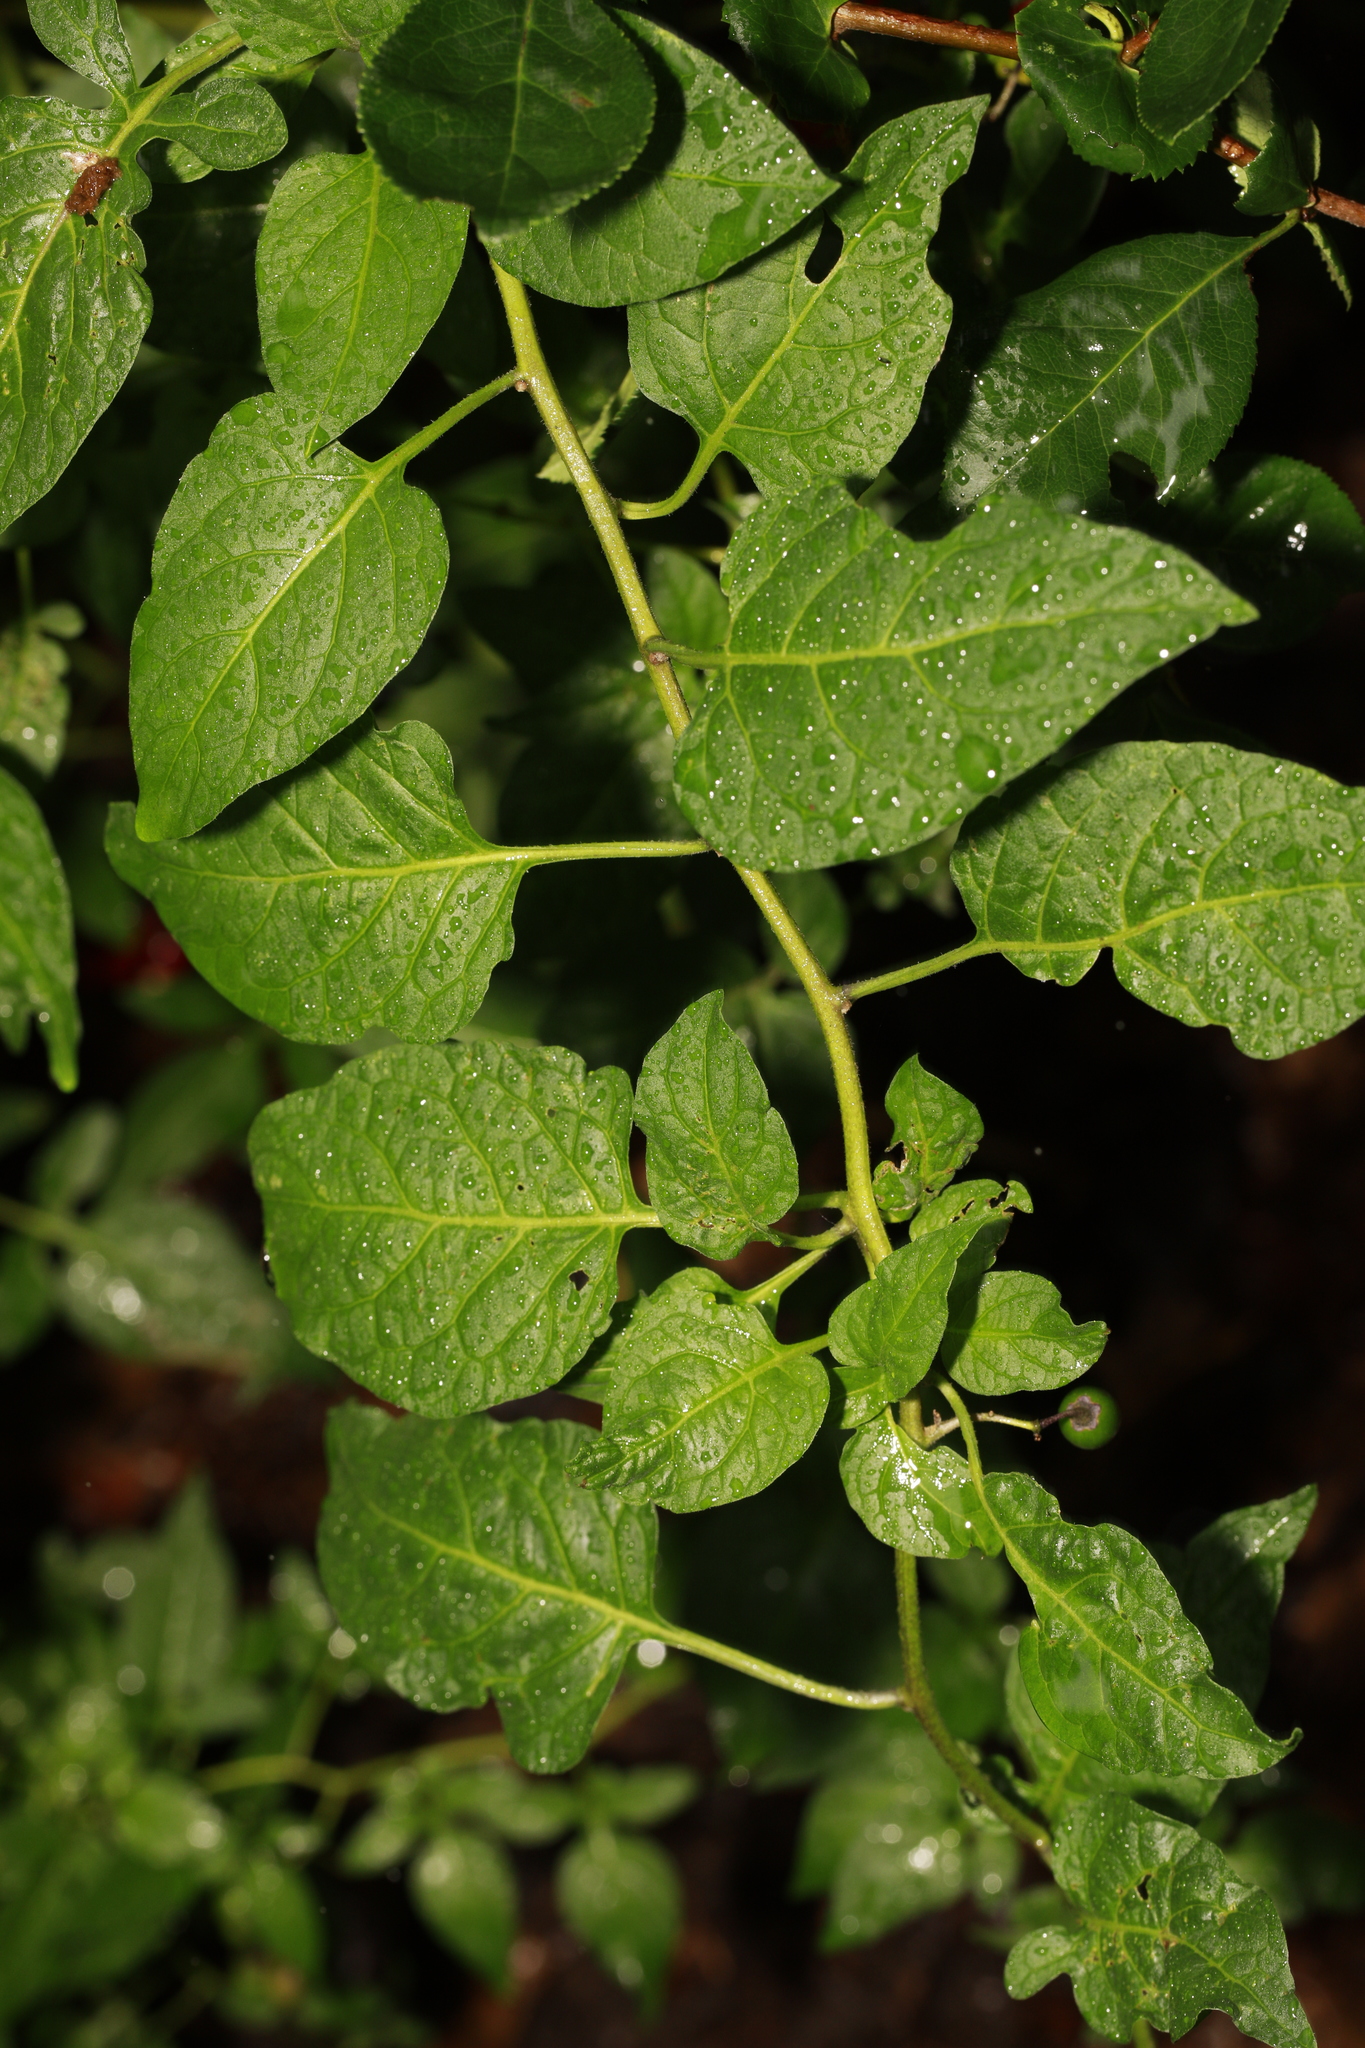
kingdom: Plantae
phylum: Tracheophyta
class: Magnoliopsida
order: Solanales
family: Solanaceae
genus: Solanum
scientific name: Solanum dulcamara
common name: Climbing nightshade
